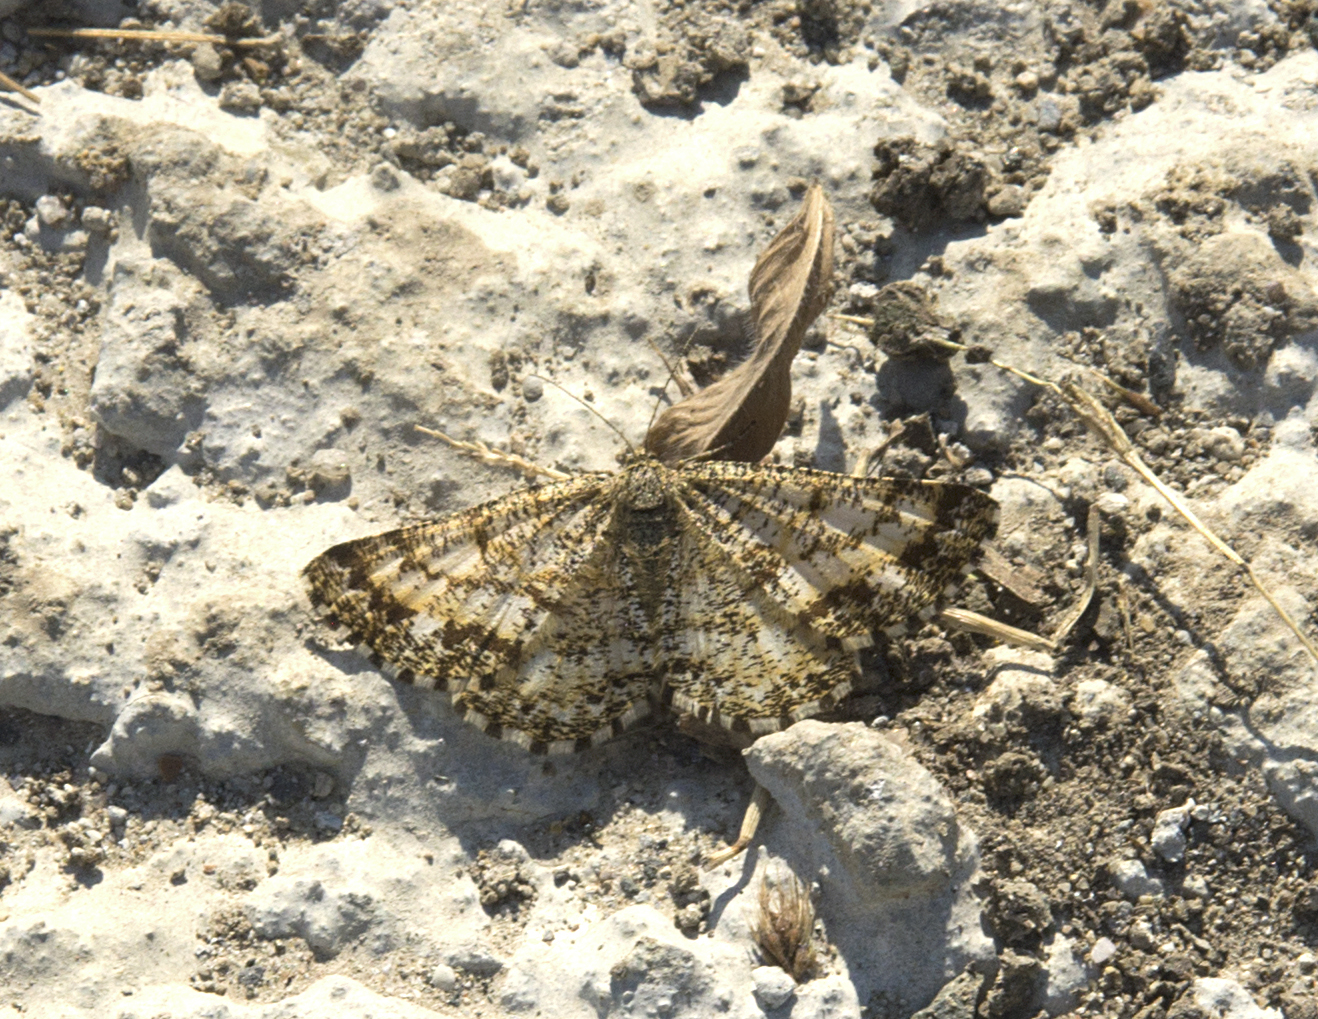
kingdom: Animalia
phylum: Arthropoda
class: Insecta
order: Lepidoptera
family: Geometridae
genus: Ematurga
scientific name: Ematurga atomaria
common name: Common heath
